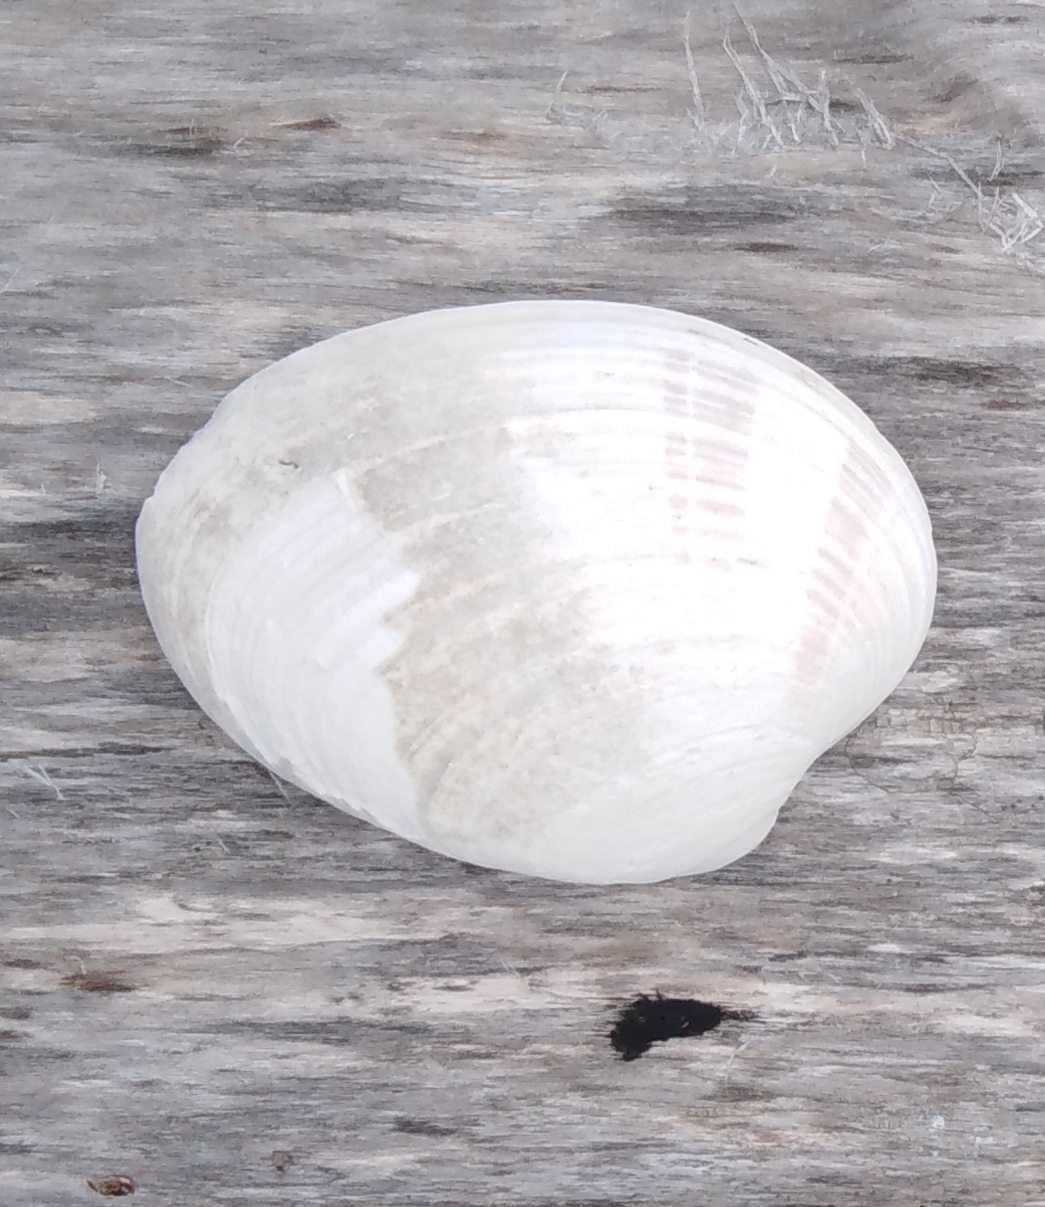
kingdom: Animalia
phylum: Mollusca
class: Bivalvia
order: Venerida
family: Veneridae
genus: Ezocallista
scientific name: Ezocallista brevisiphonata
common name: Short-snouted callista
